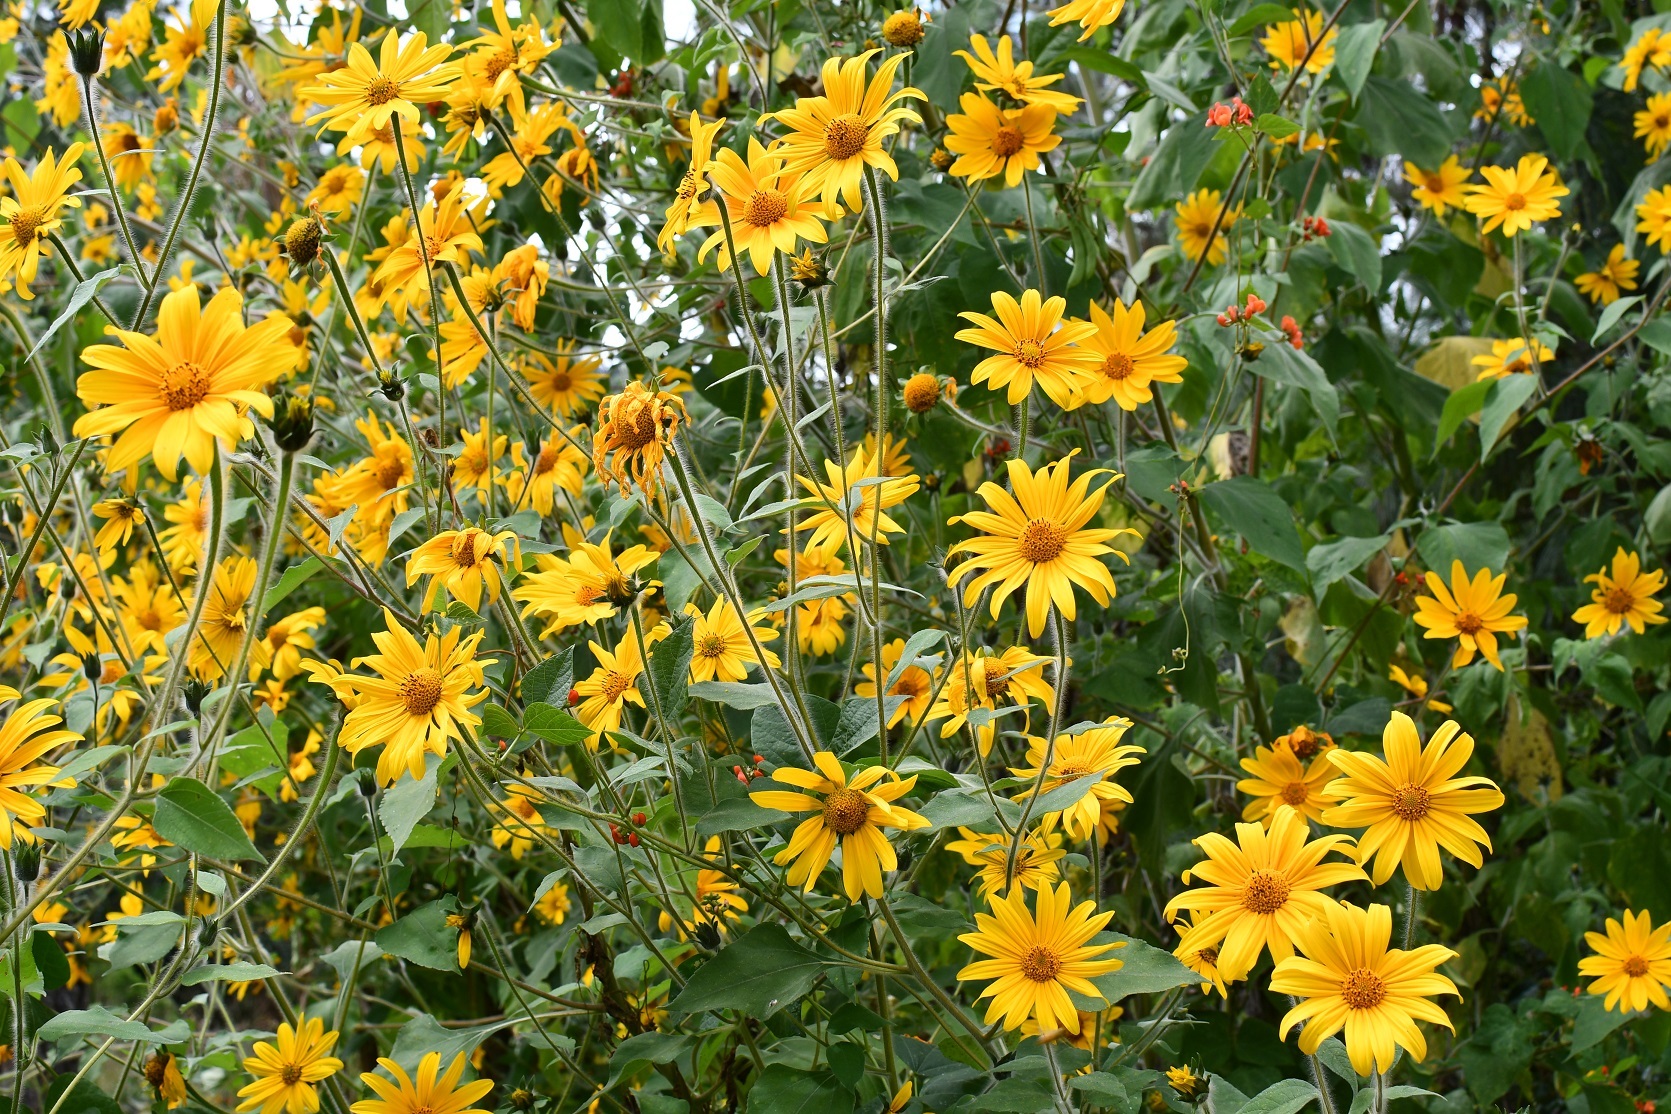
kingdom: Plantae
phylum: Tracheophyta
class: Magnoliopsida
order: Asterales
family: Asteraceae
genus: Tithonia
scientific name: Tithonia tubaeformis
